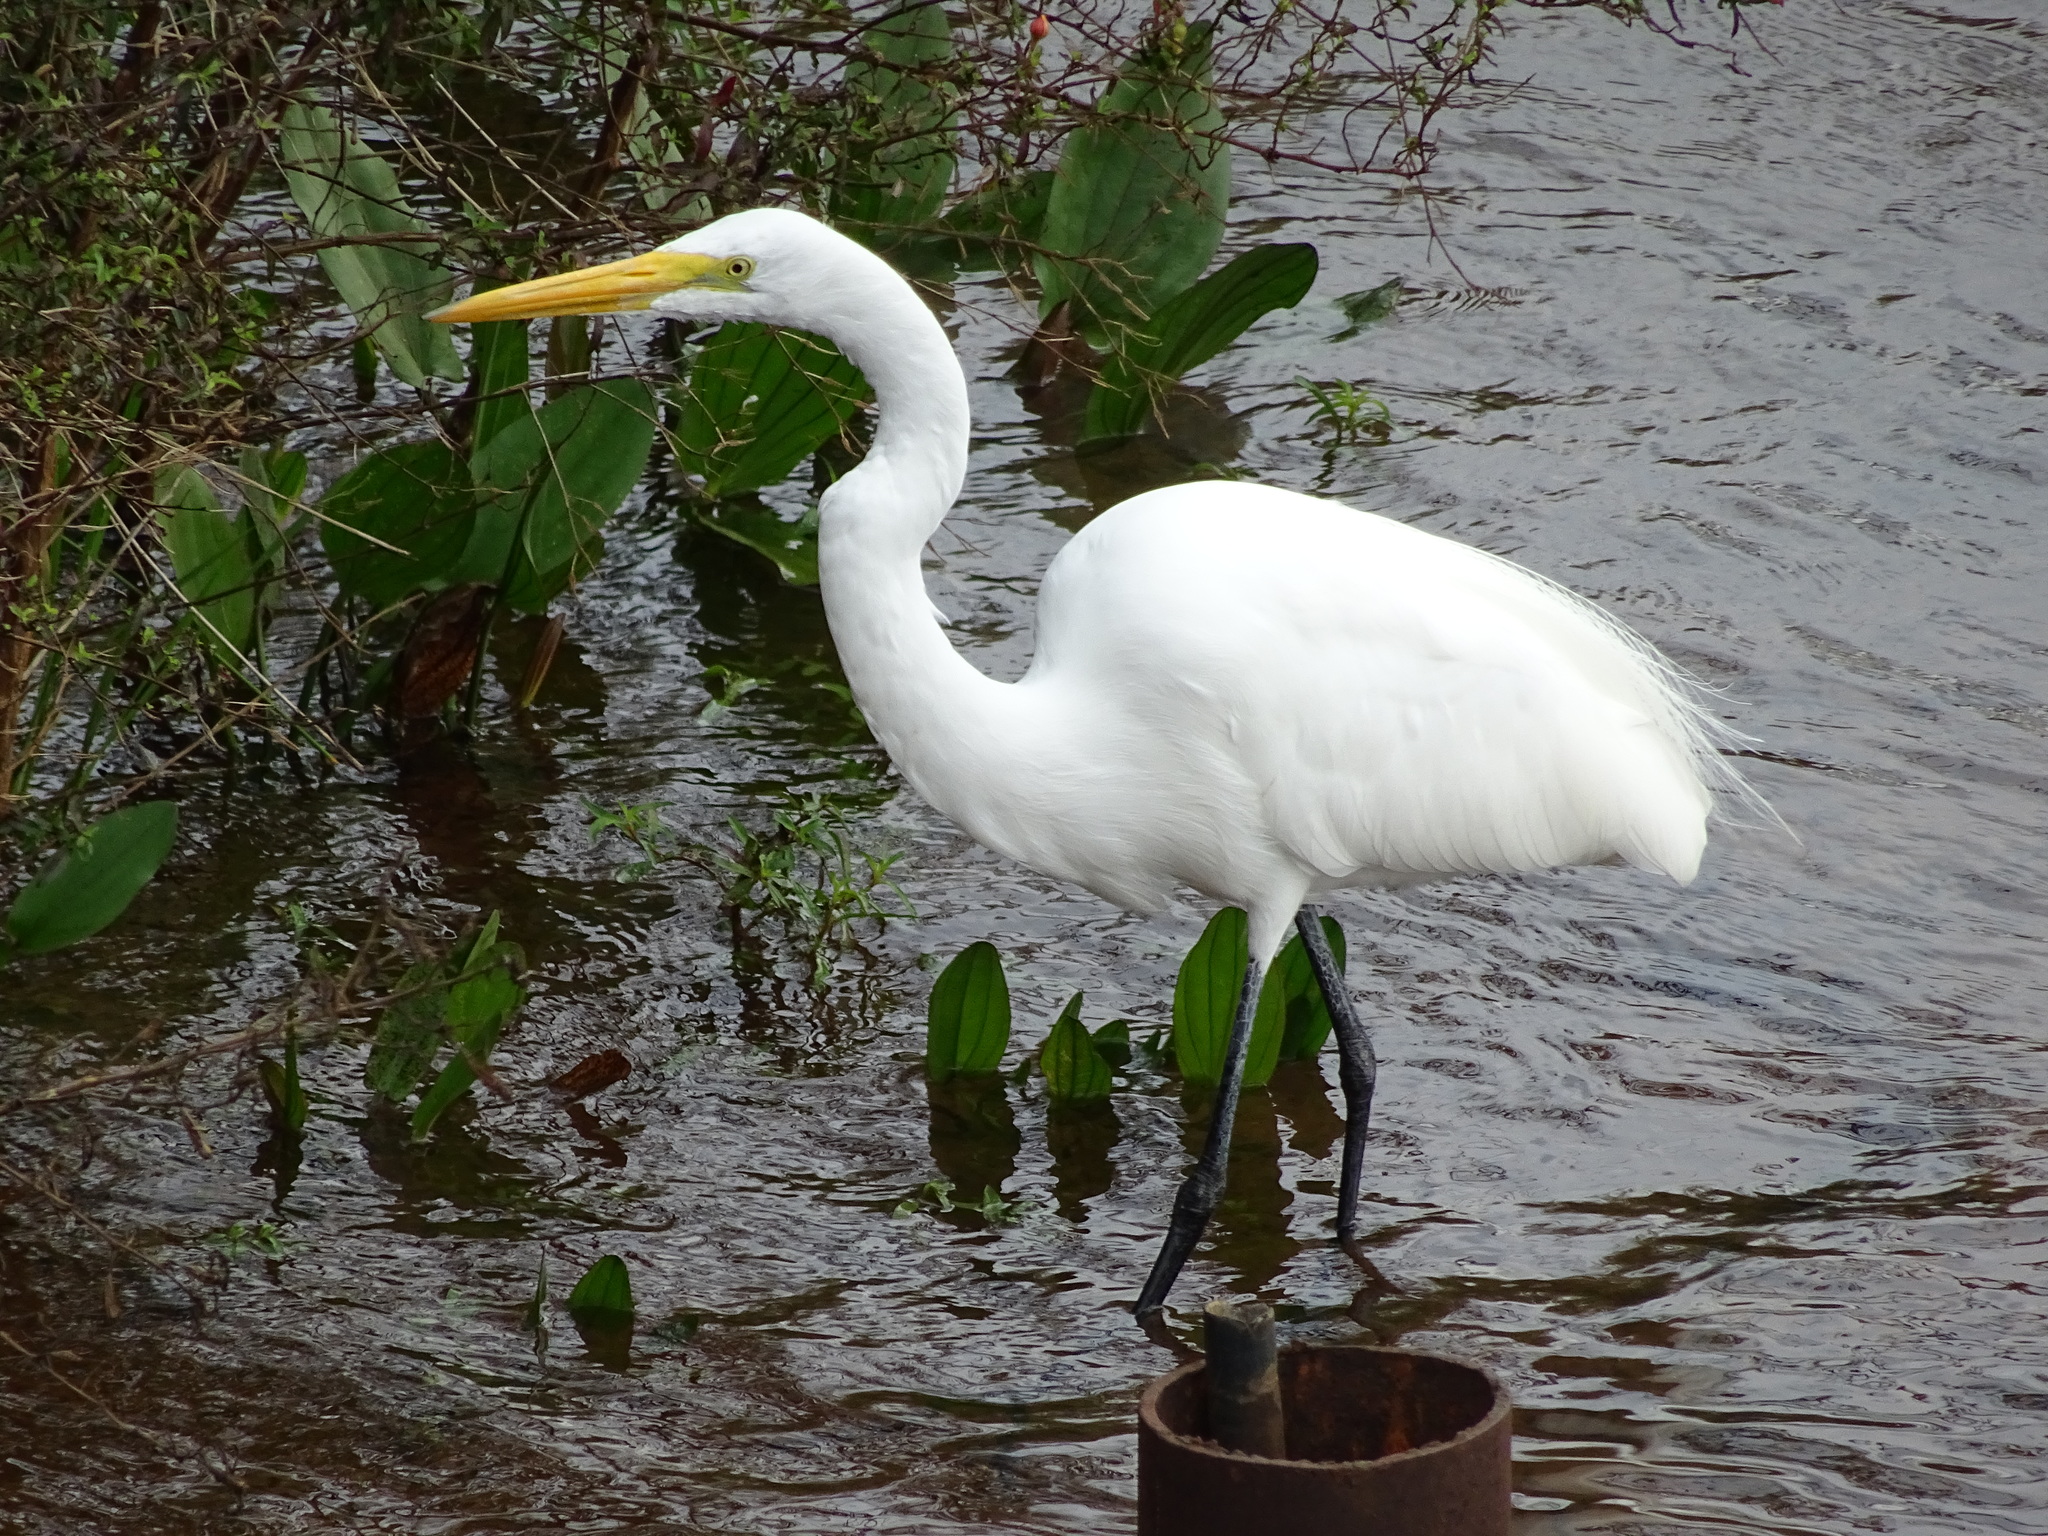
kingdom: Animalia
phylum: Chordata
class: Aves
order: Pelecaniformes
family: Ardeidae
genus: Ardea
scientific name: Ardea alba
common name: Great egret
